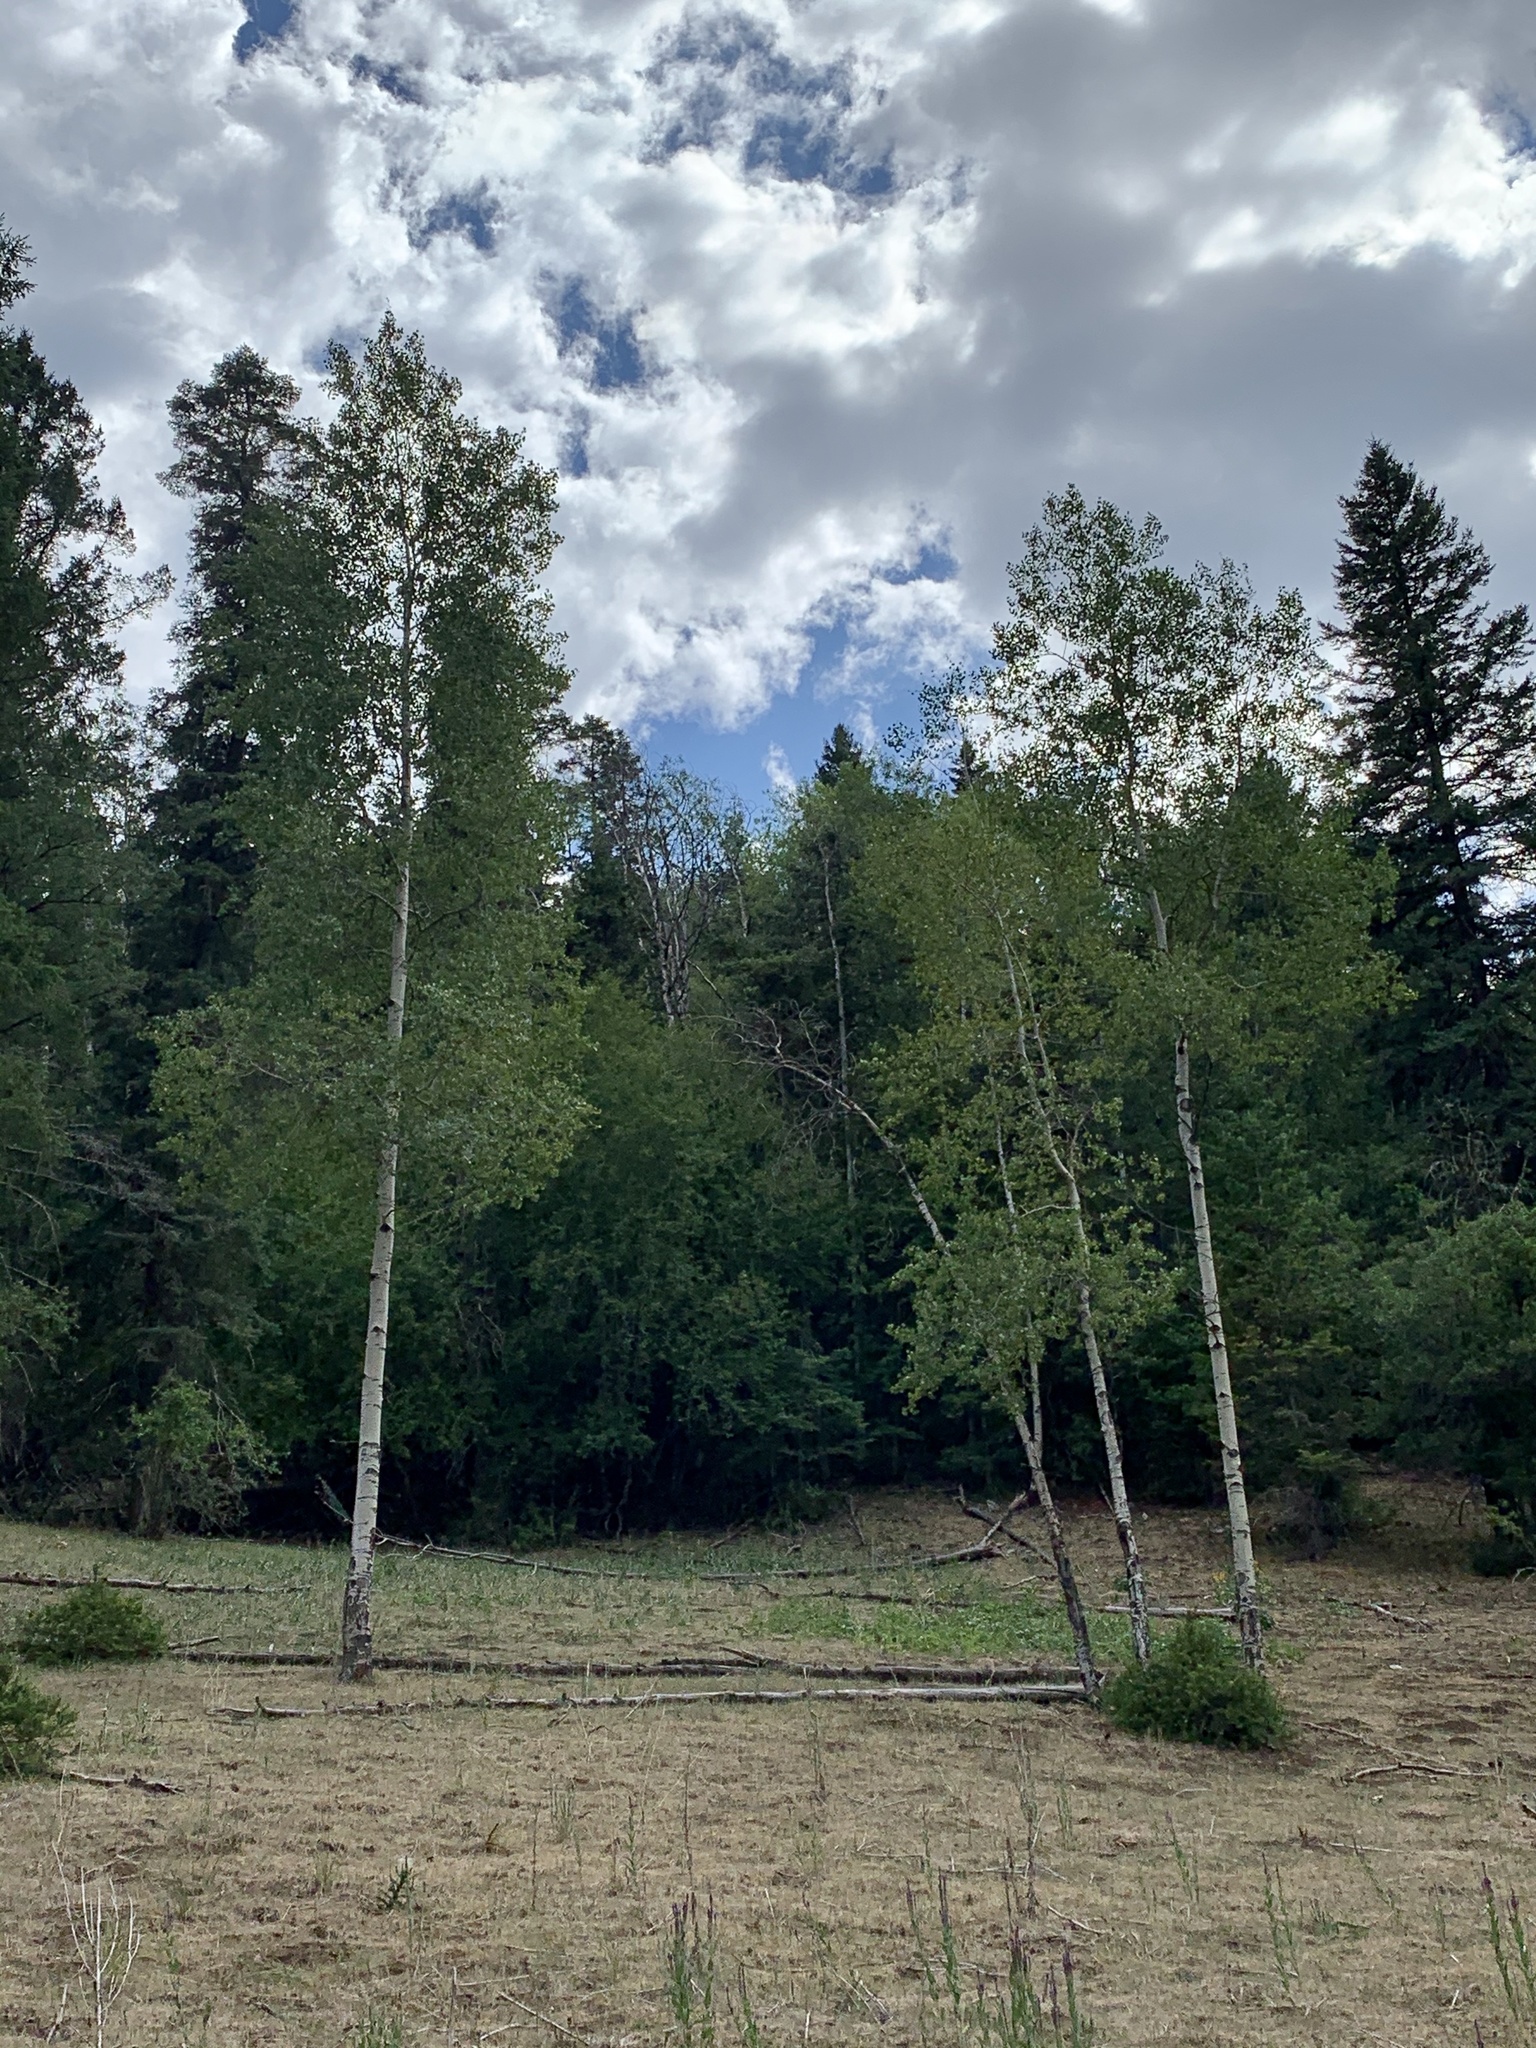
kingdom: Plantae
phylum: Tracheophyta
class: Magnoliopsida
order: Malpighiales
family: Salicaceae
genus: Populus
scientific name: Populus tremuloides
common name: Quaking aspen
